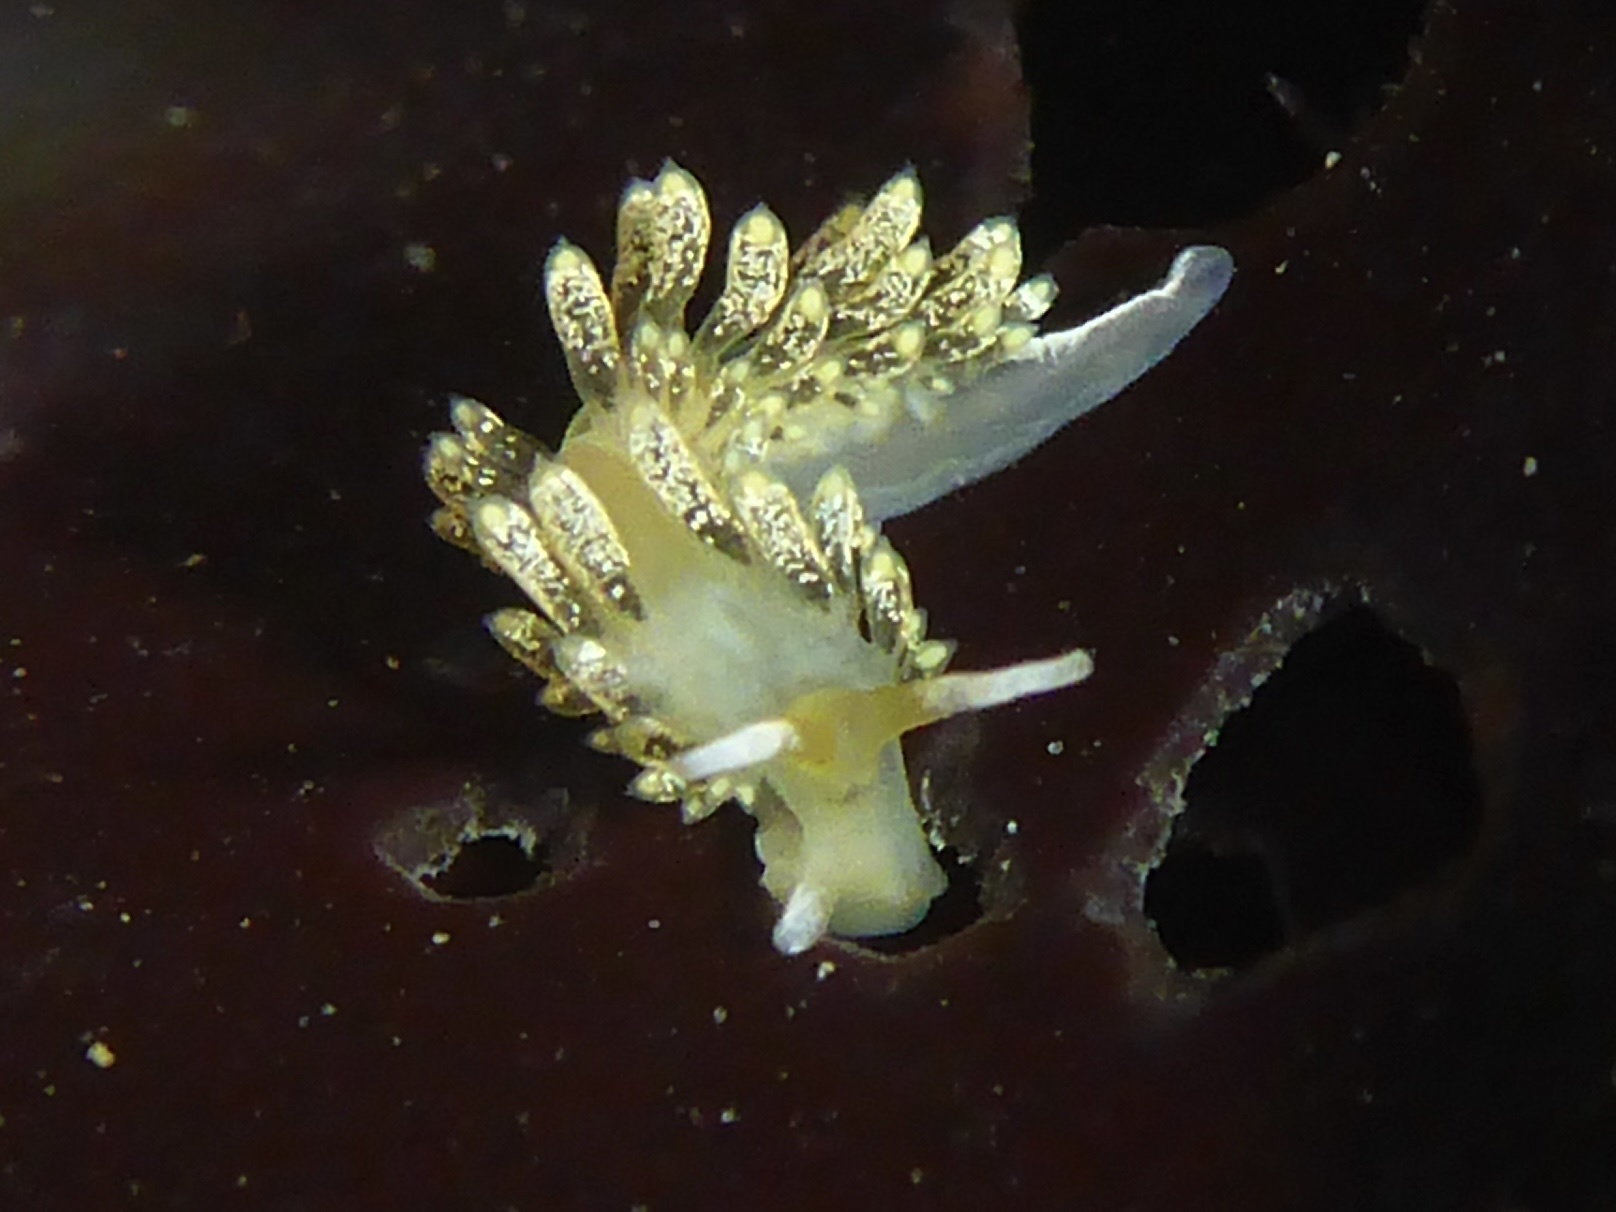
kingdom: Animalia
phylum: Mollusca
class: Gastropoda
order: Nudibranchia
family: Trinchesiidae
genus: Diaphoreolis
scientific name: Diaphoreolis flavovulta
